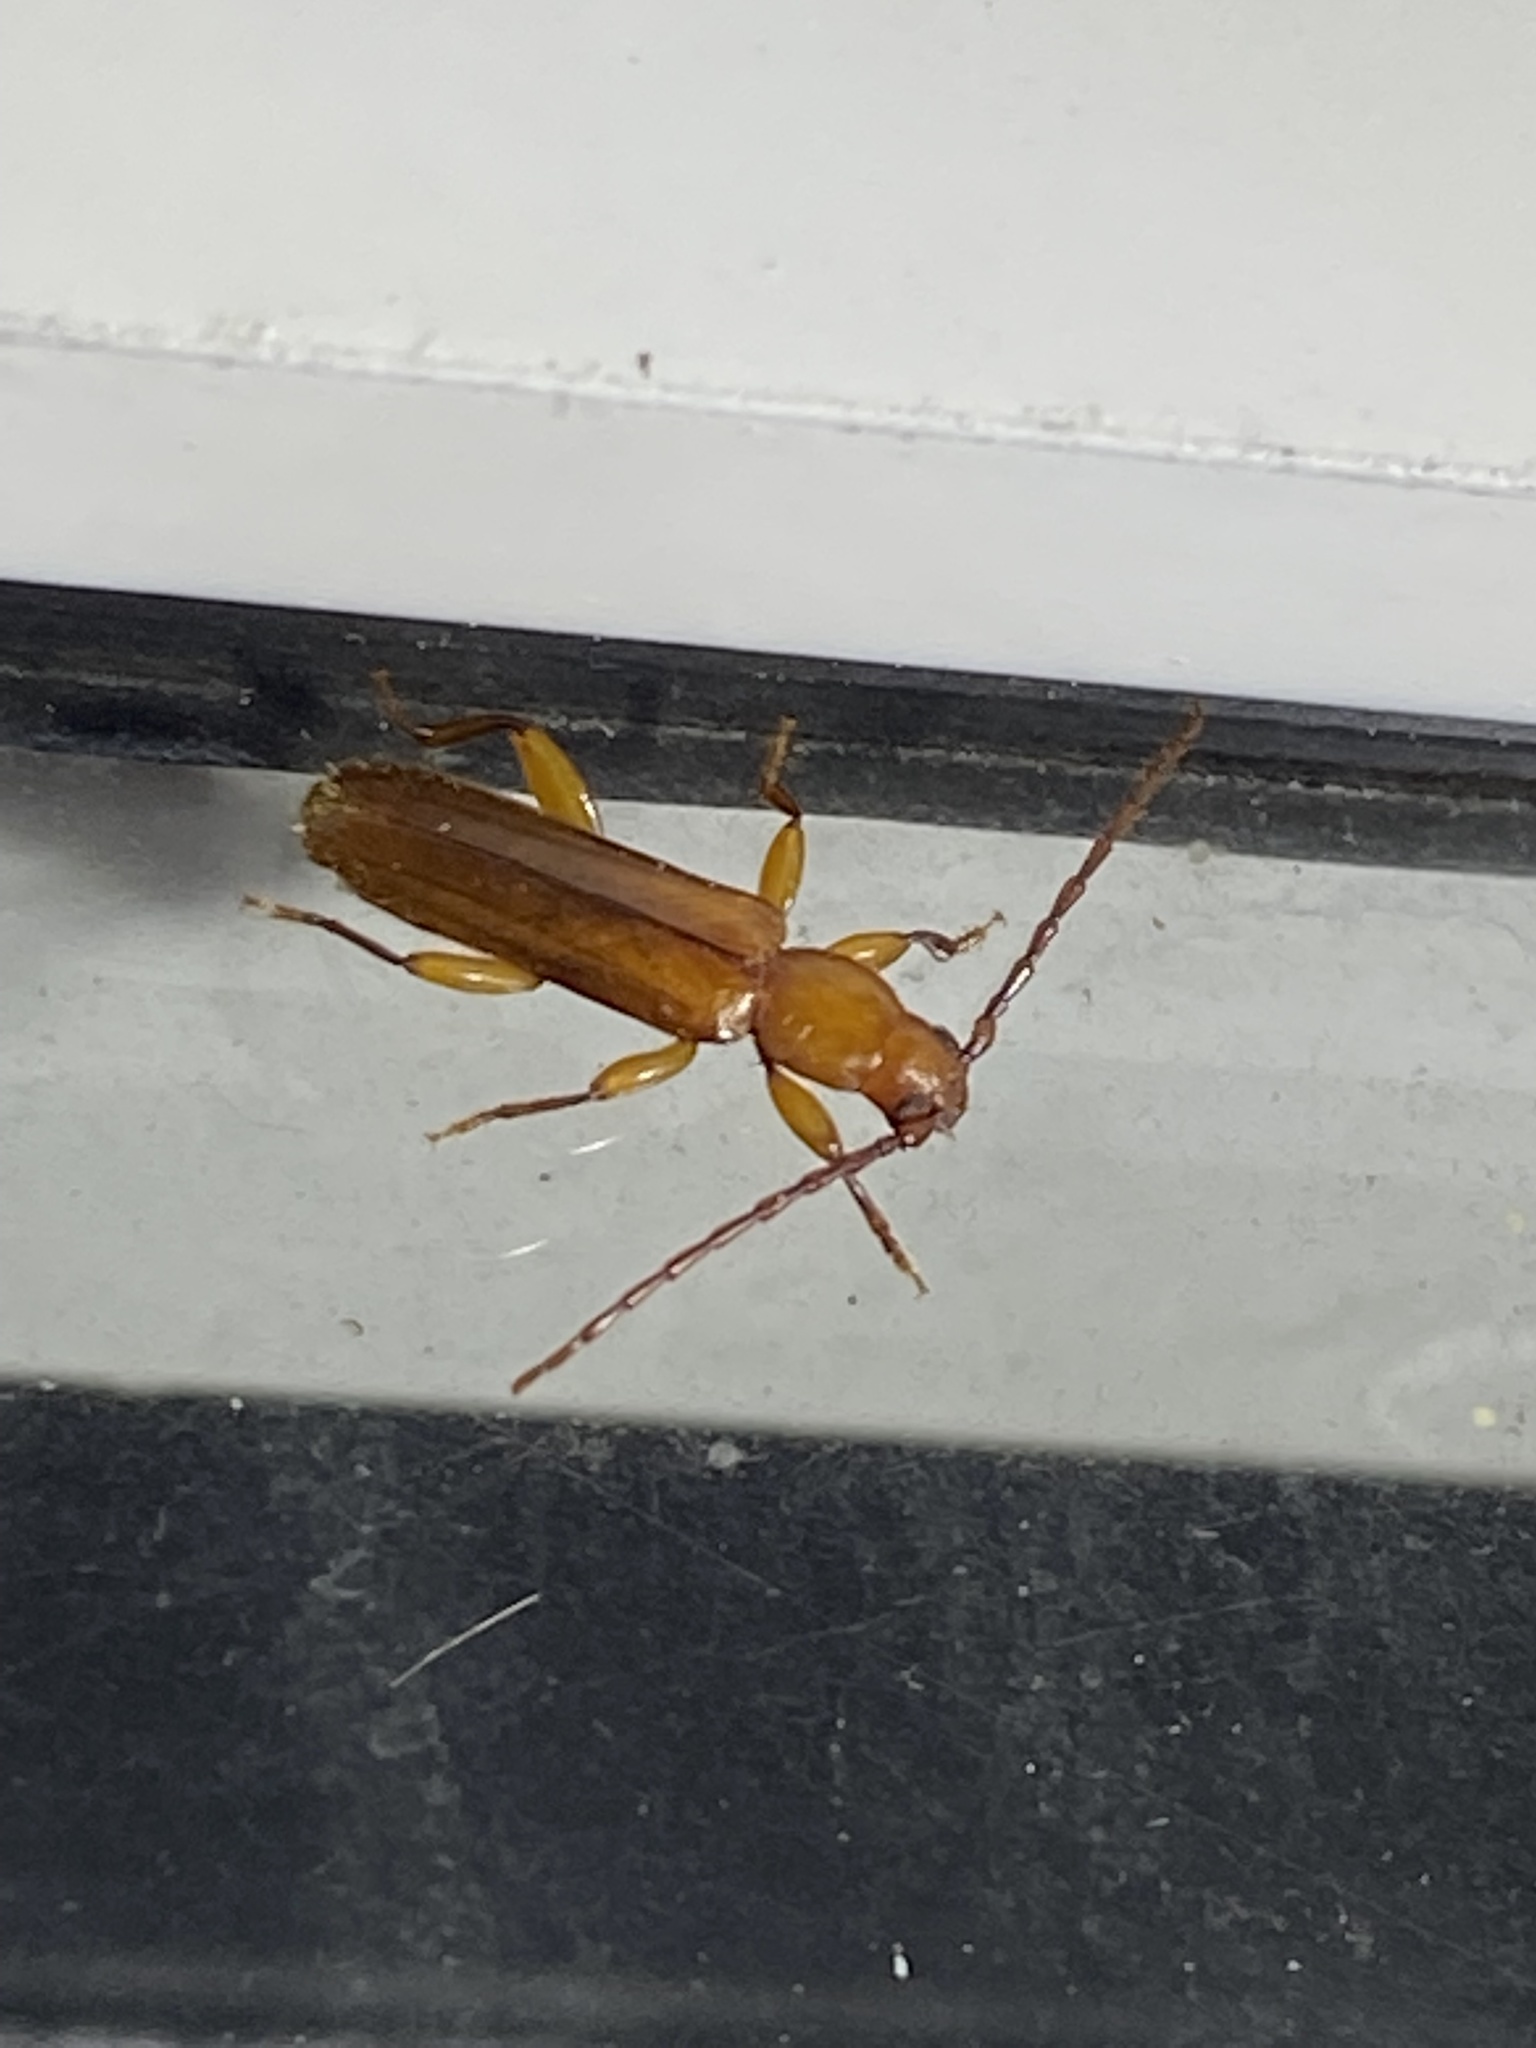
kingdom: Animalia
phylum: Arthropoda
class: Insecta
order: Coleoptera
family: Cerambycidae
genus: Smodicum
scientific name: Smodicum cucujiforme
